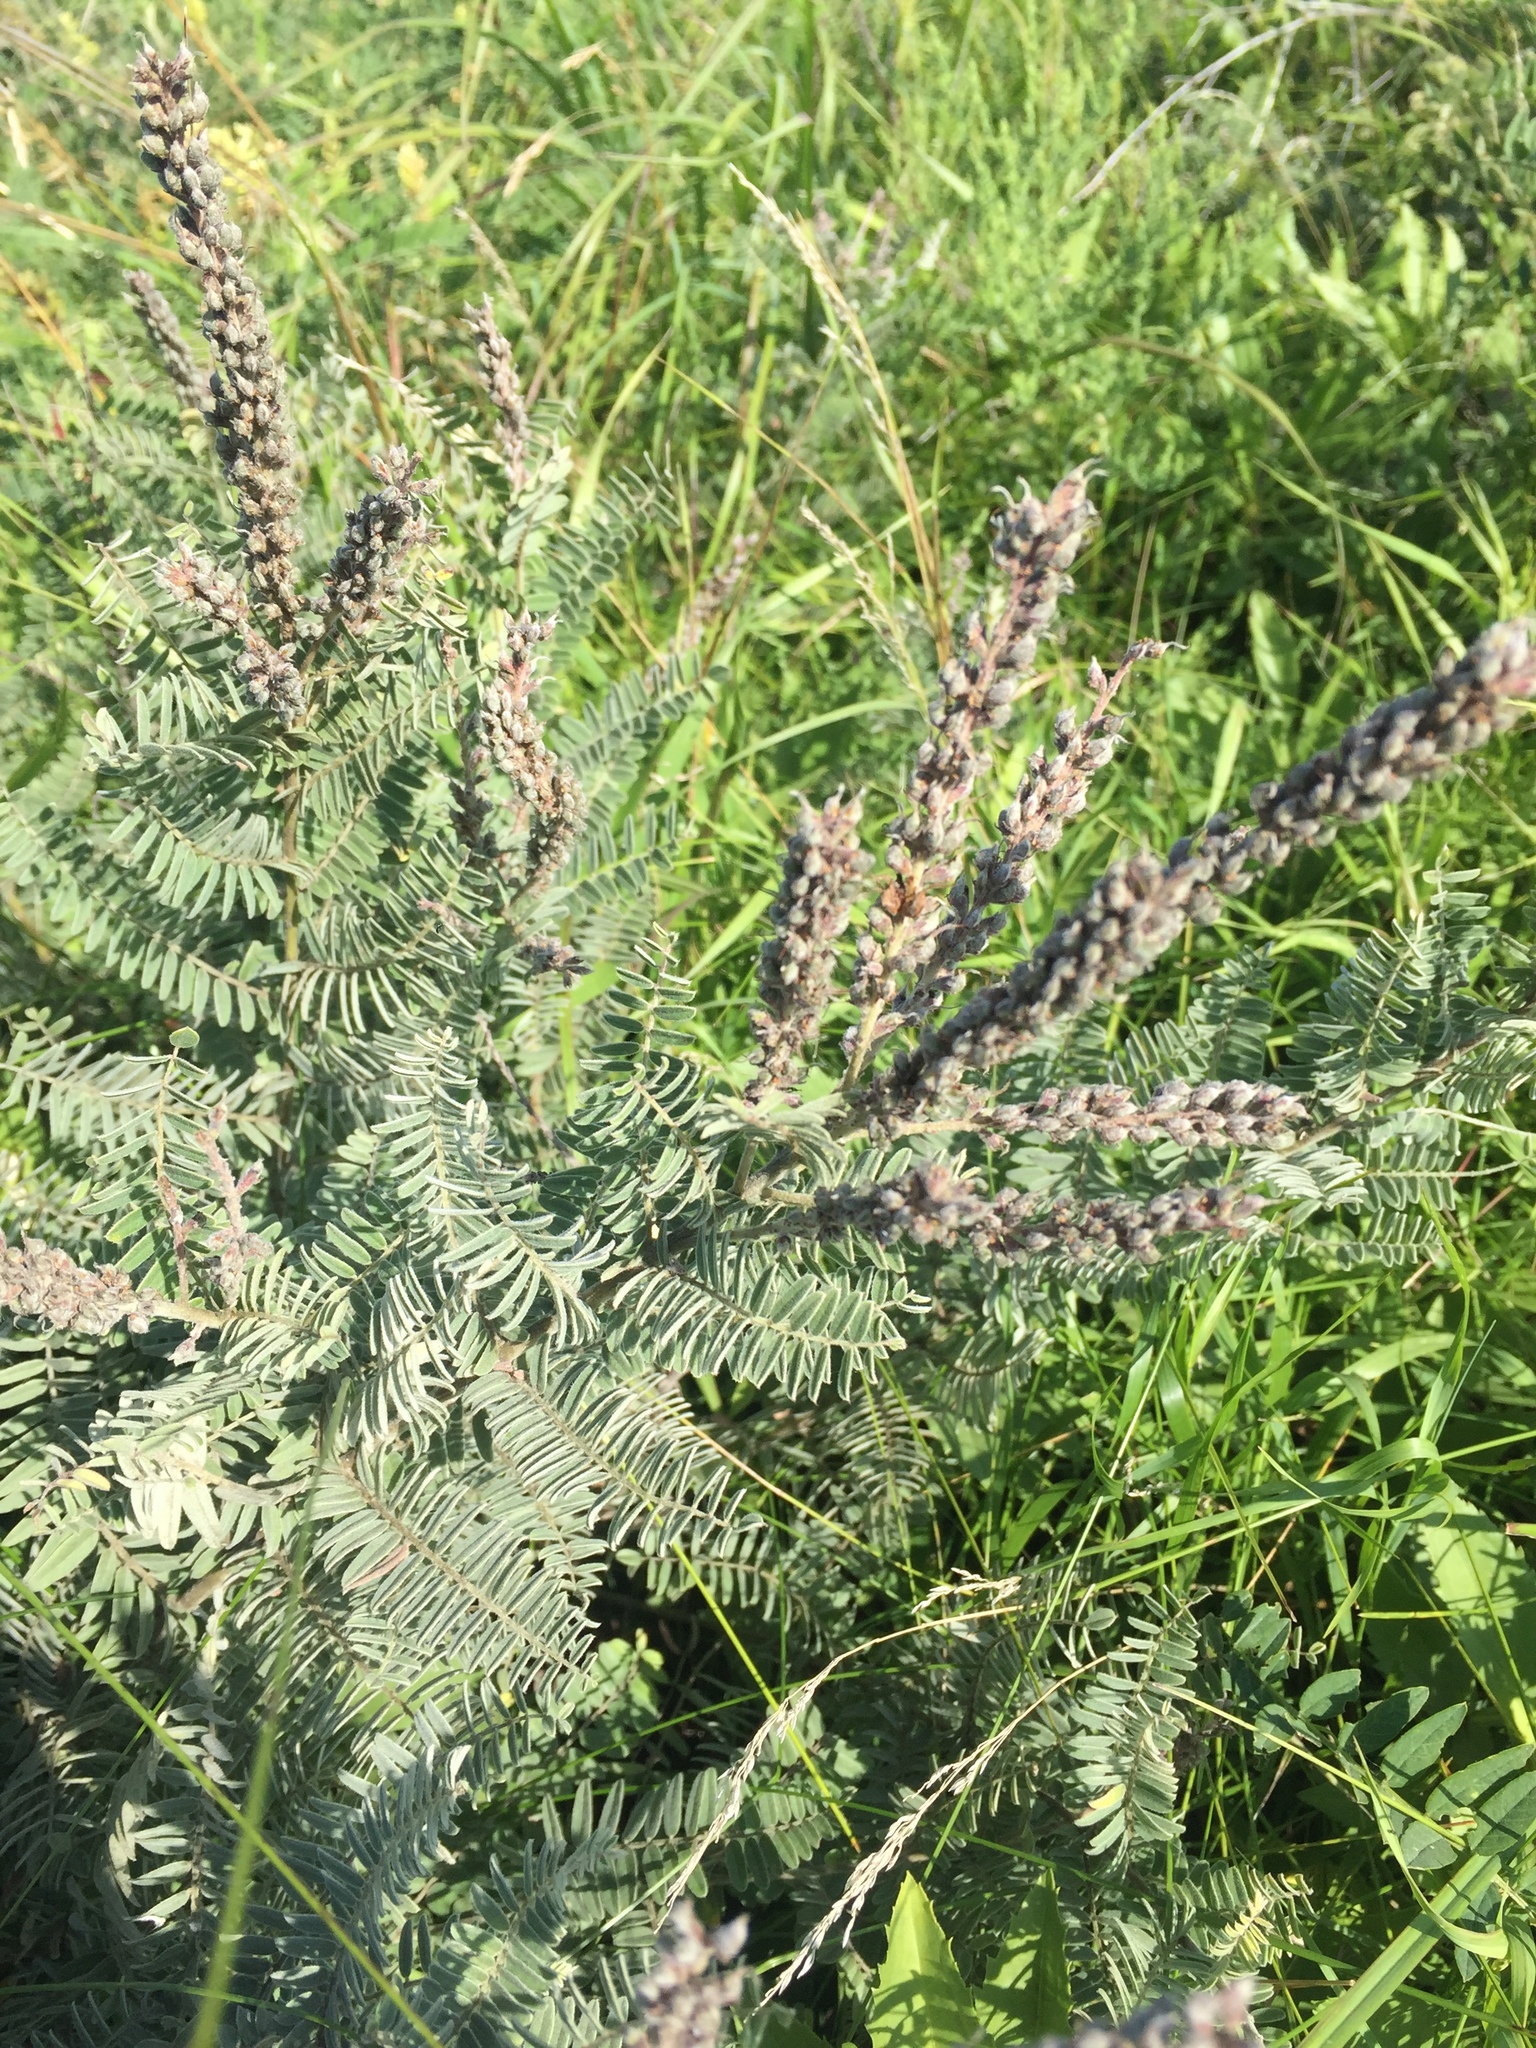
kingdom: Plantae
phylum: Tracheophyta
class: Magnoliopsida
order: Fabales
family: Fabaceae
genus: Amorpha
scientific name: Amorpha canescens
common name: Leadplant
